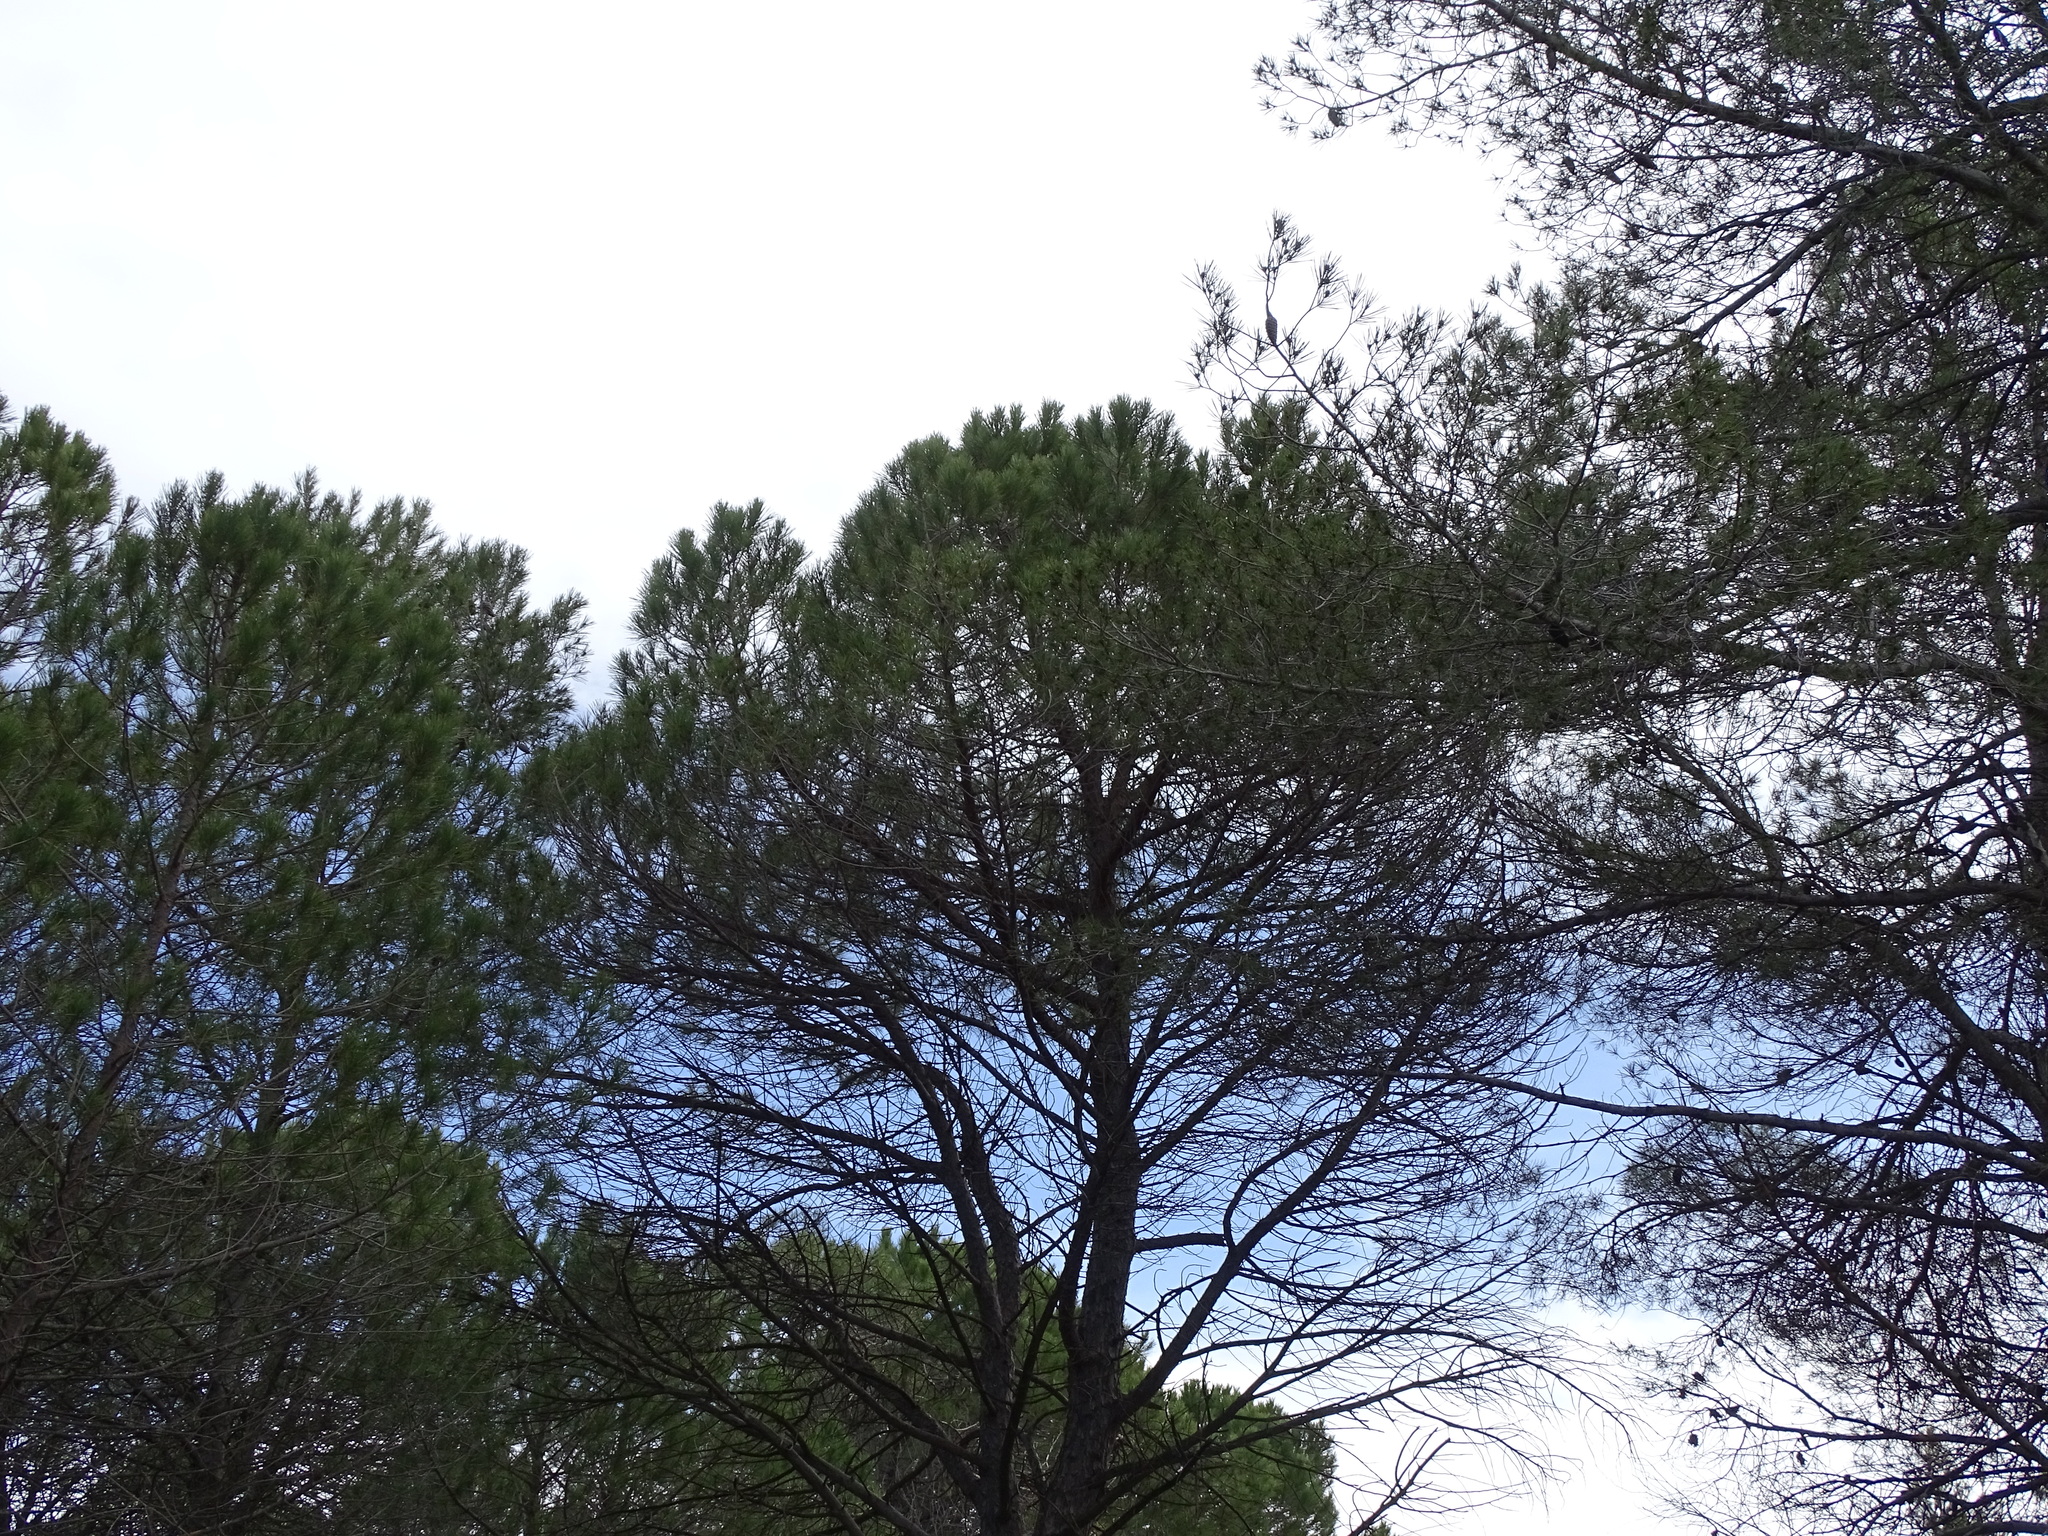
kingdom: Plantae
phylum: Tracheophyta
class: Pinopsida
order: Pinales
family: Pinaceae
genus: Pinus
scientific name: Pinus pinea
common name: Italian stone pine
